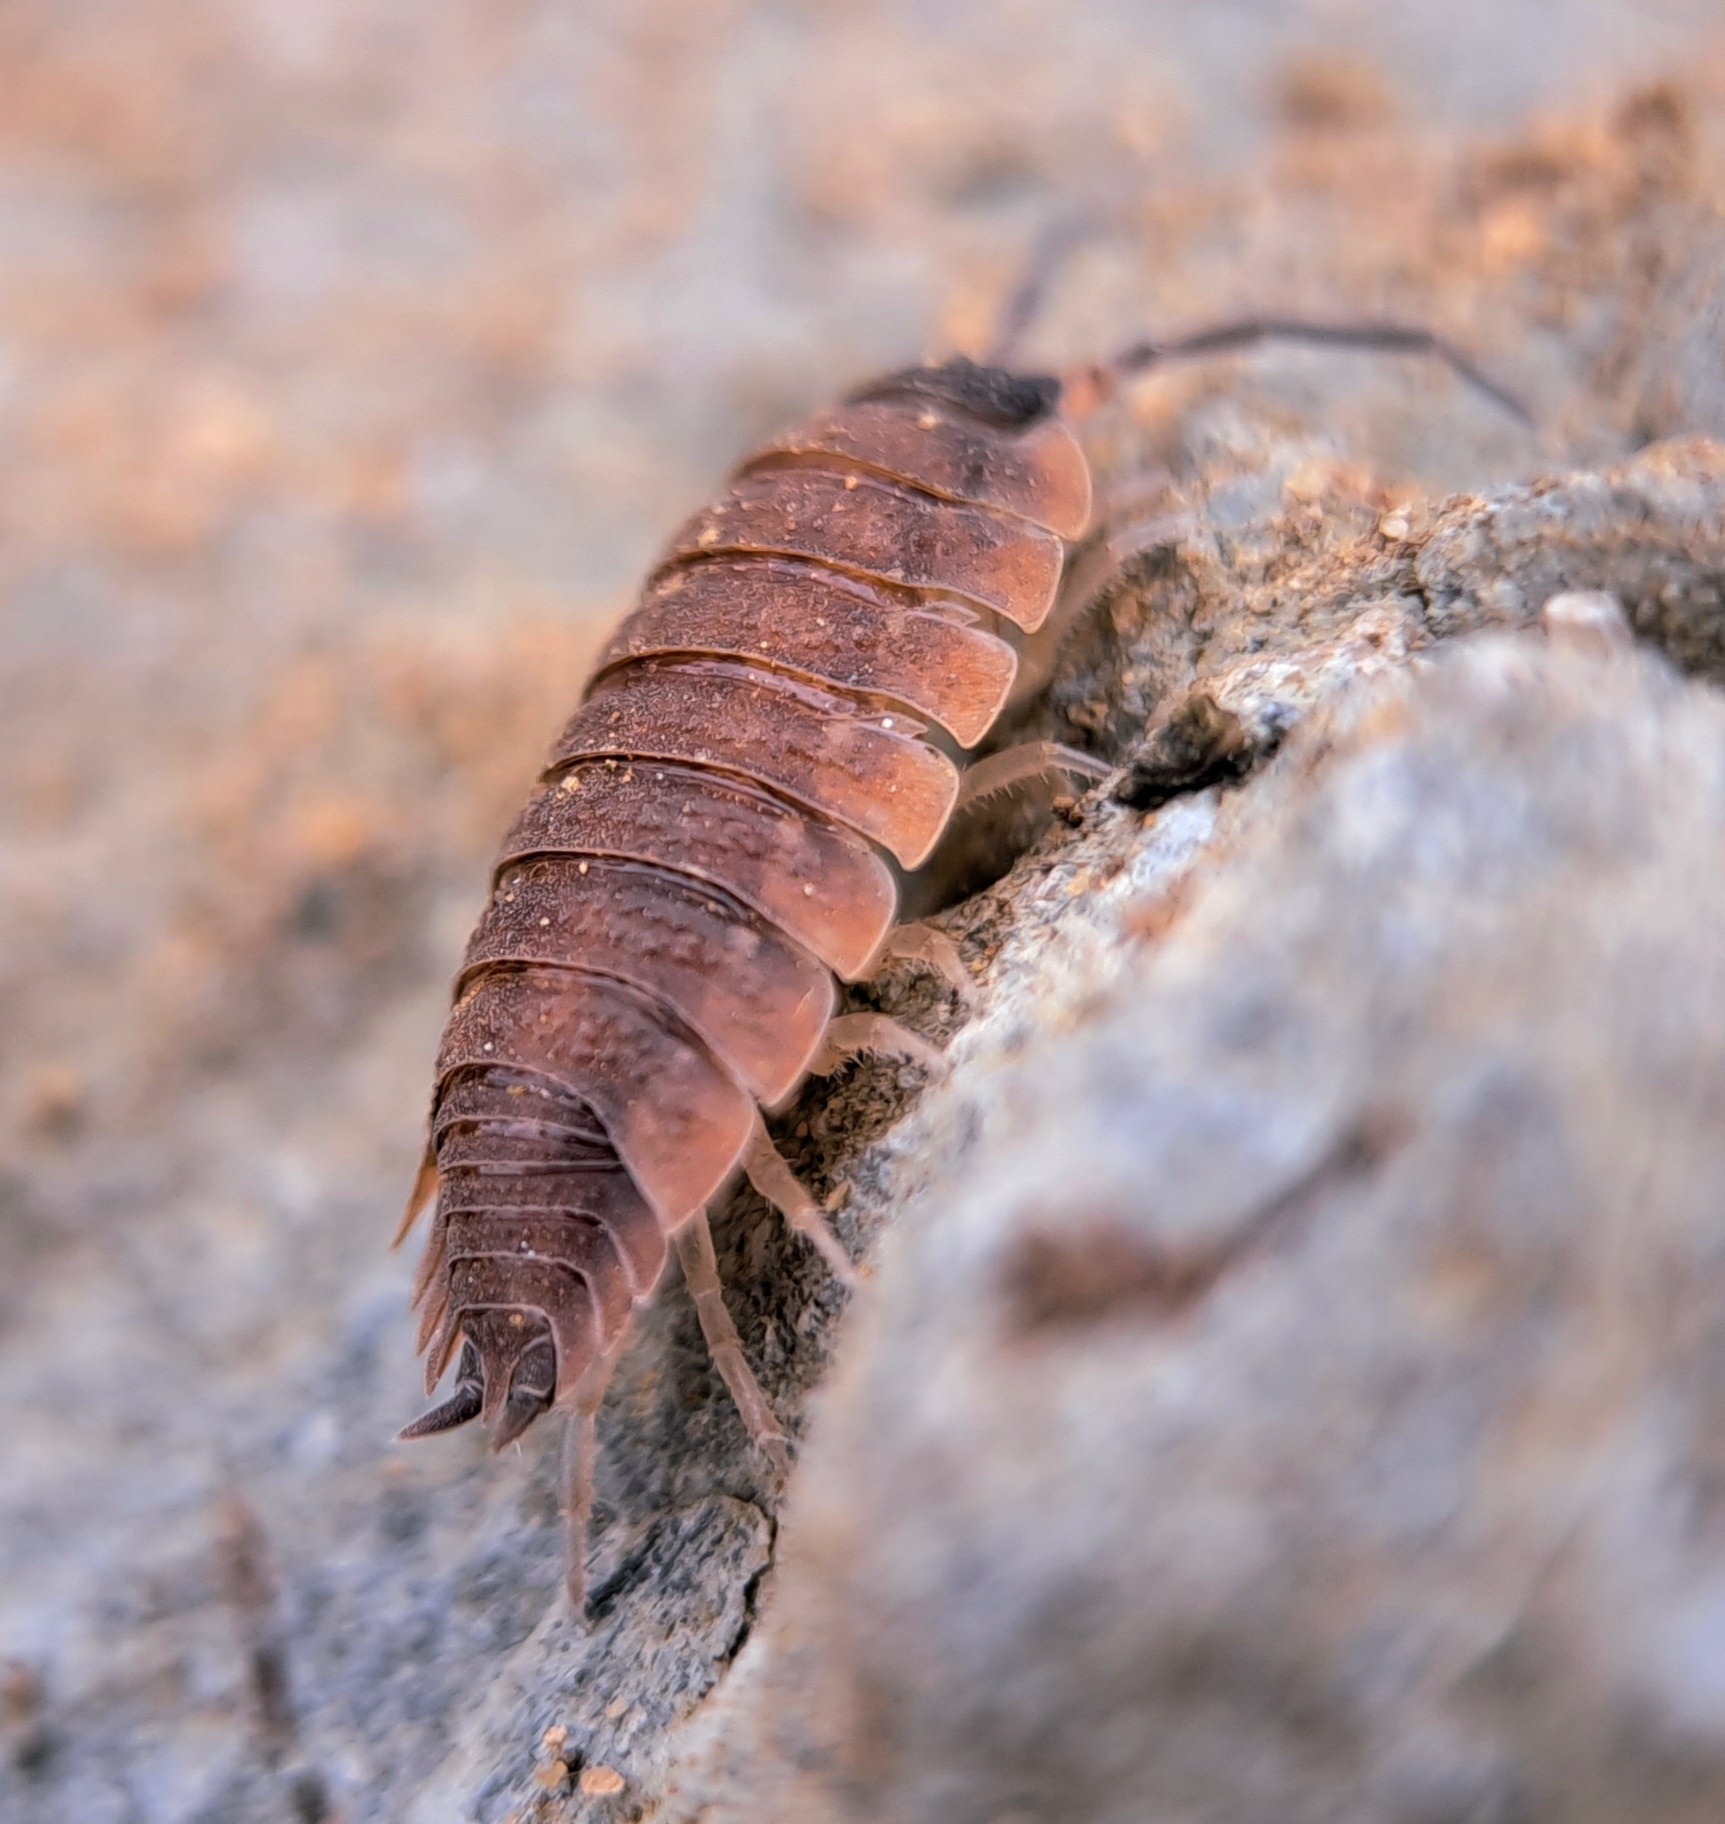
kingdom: Animalia
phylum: Arthropoda
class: Malacostraca
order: Isopoda
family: Porcellionidae
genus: Porcellio
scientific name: Porcellio scaber
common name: Common rough woodlouse
